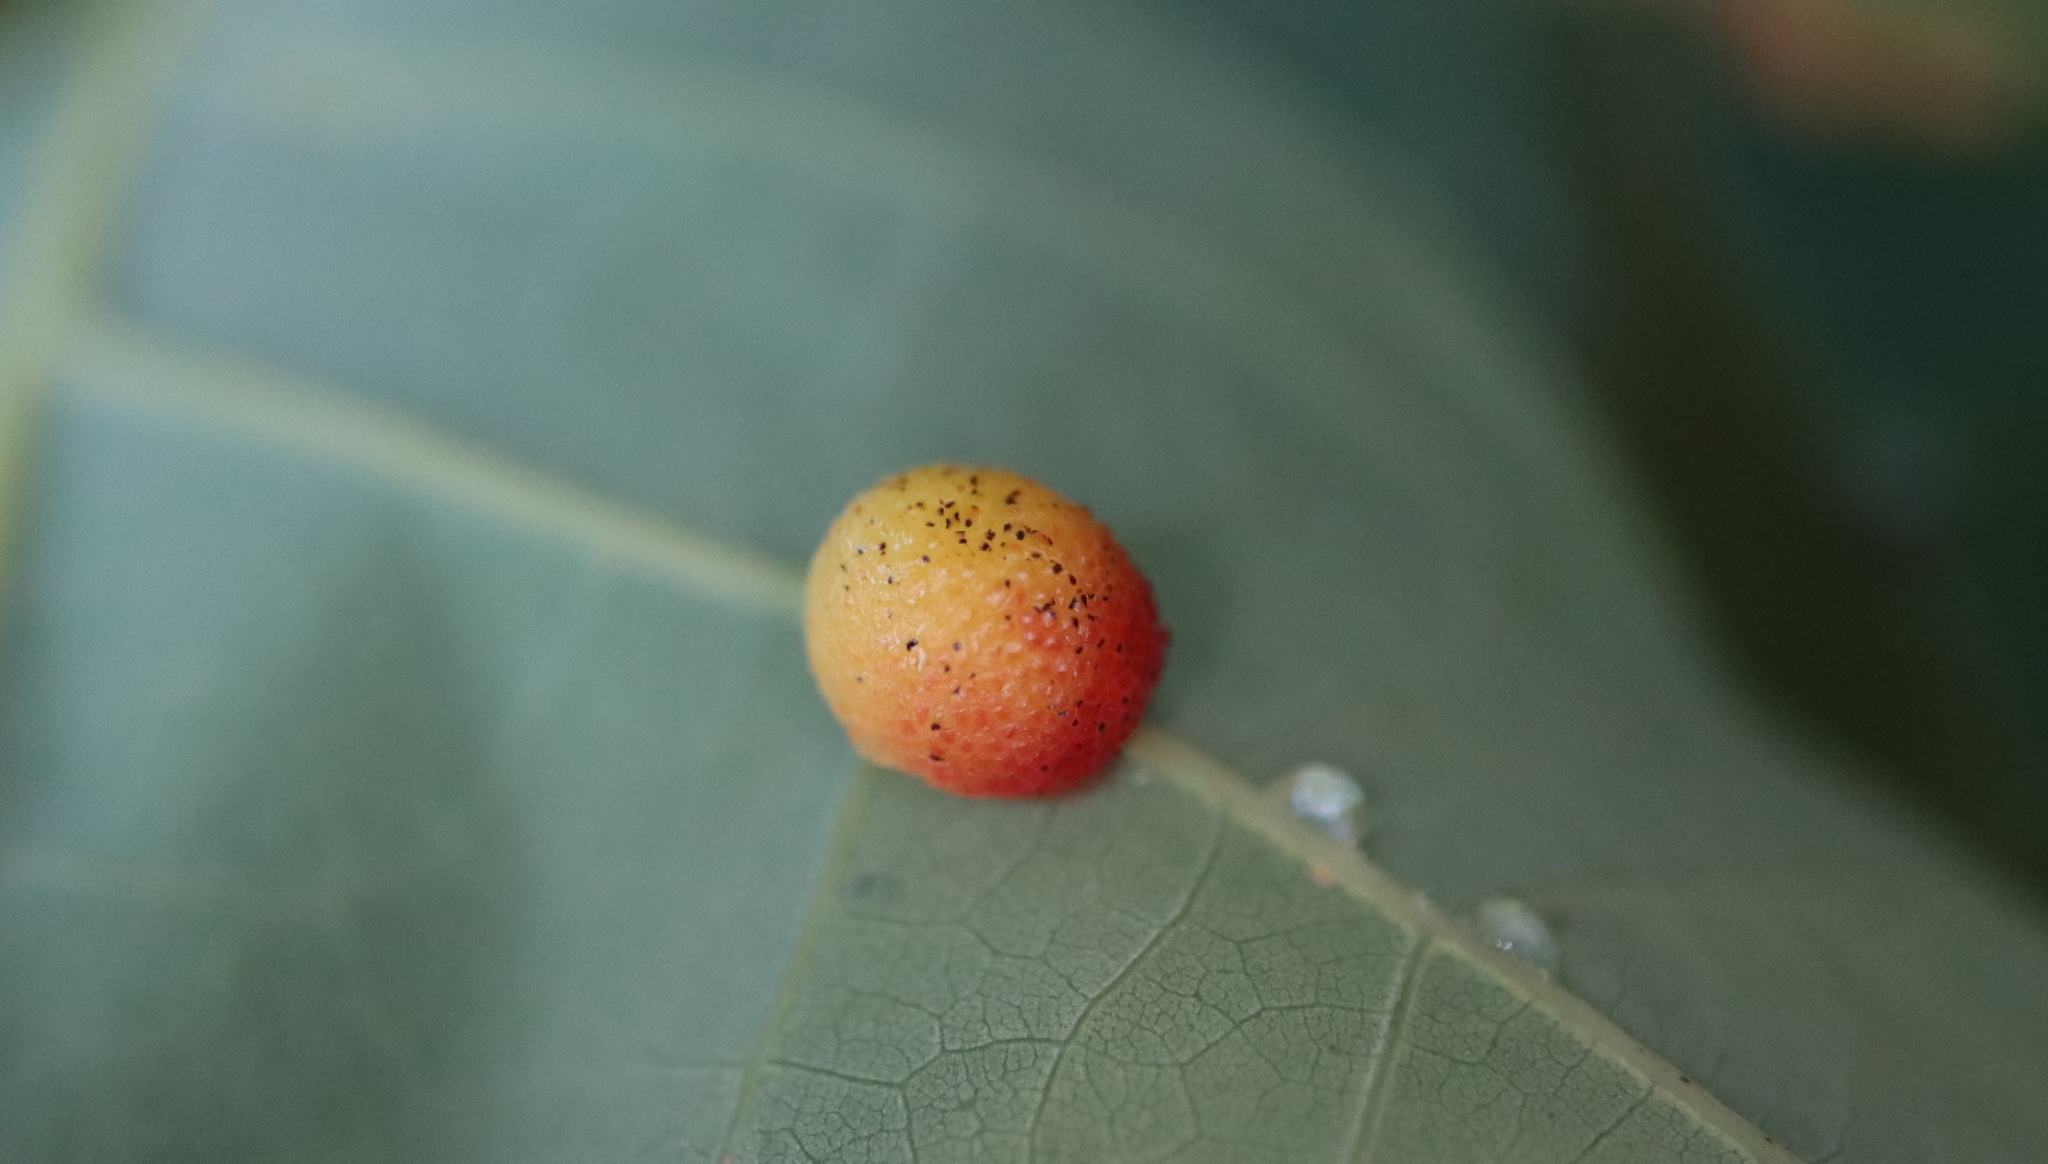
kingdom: Animalia
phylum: Arthropoda
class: Insecta
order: Hymenoptera
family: Cynipidae
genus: Acraspis
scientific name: Acraspis
